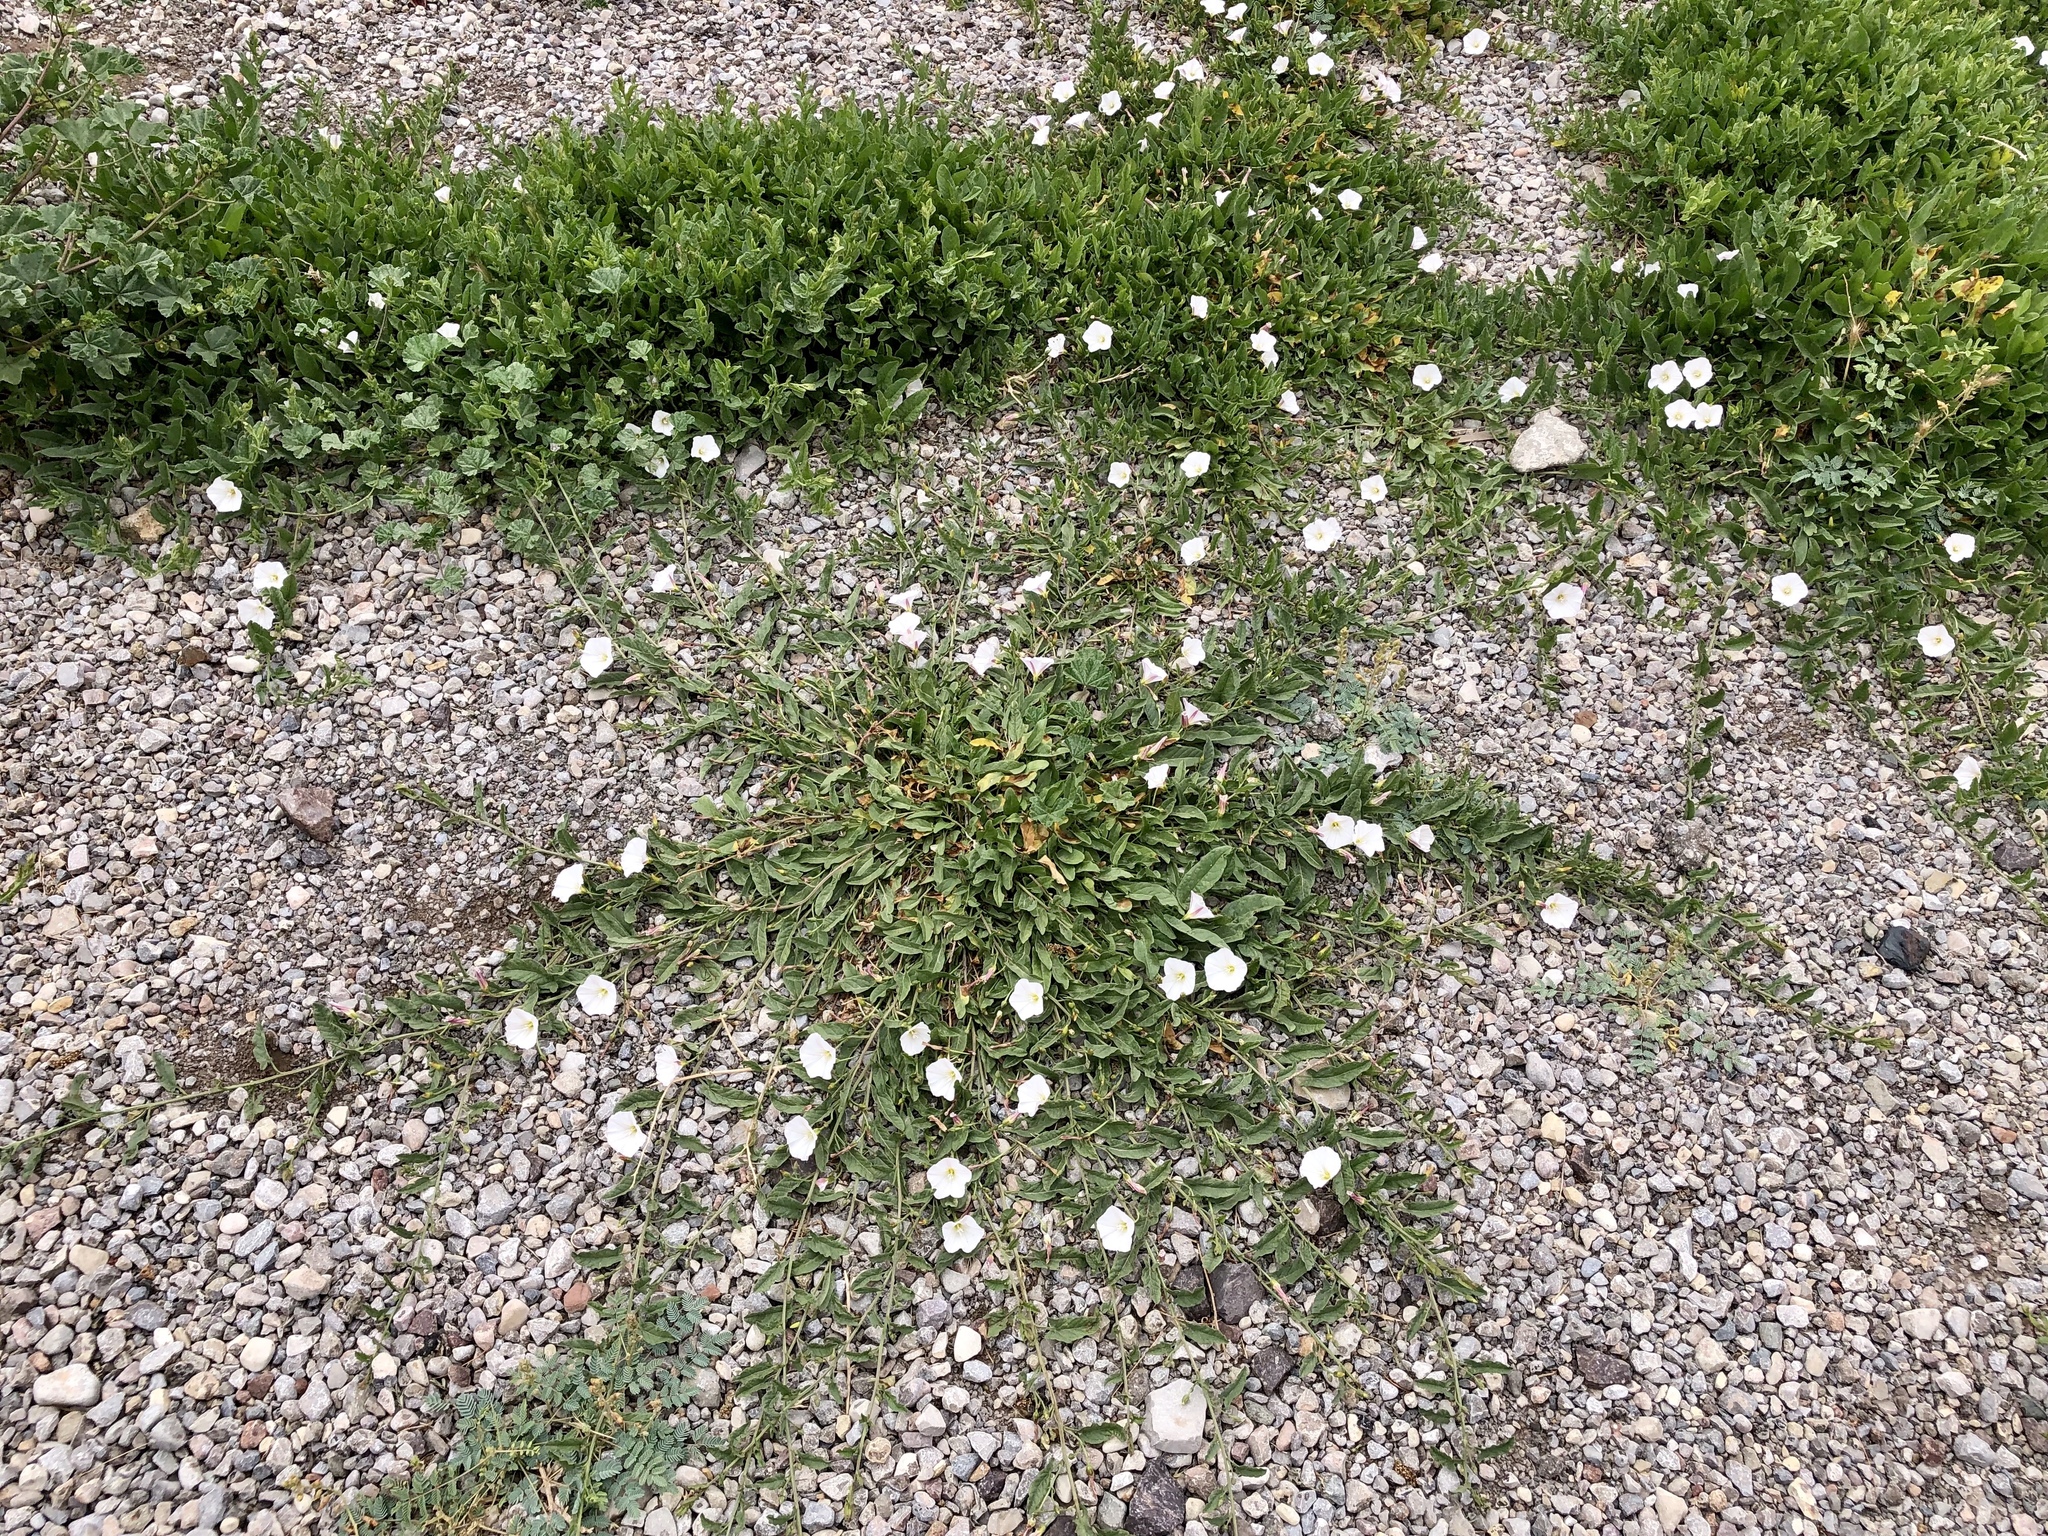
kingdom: Plantae
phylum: Tracheophyta
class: Magnoliopsida
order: Solanales
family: Convolvulaceae
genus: Convolvulus
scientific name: Convolvulus arvensis
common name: Field bindweed
